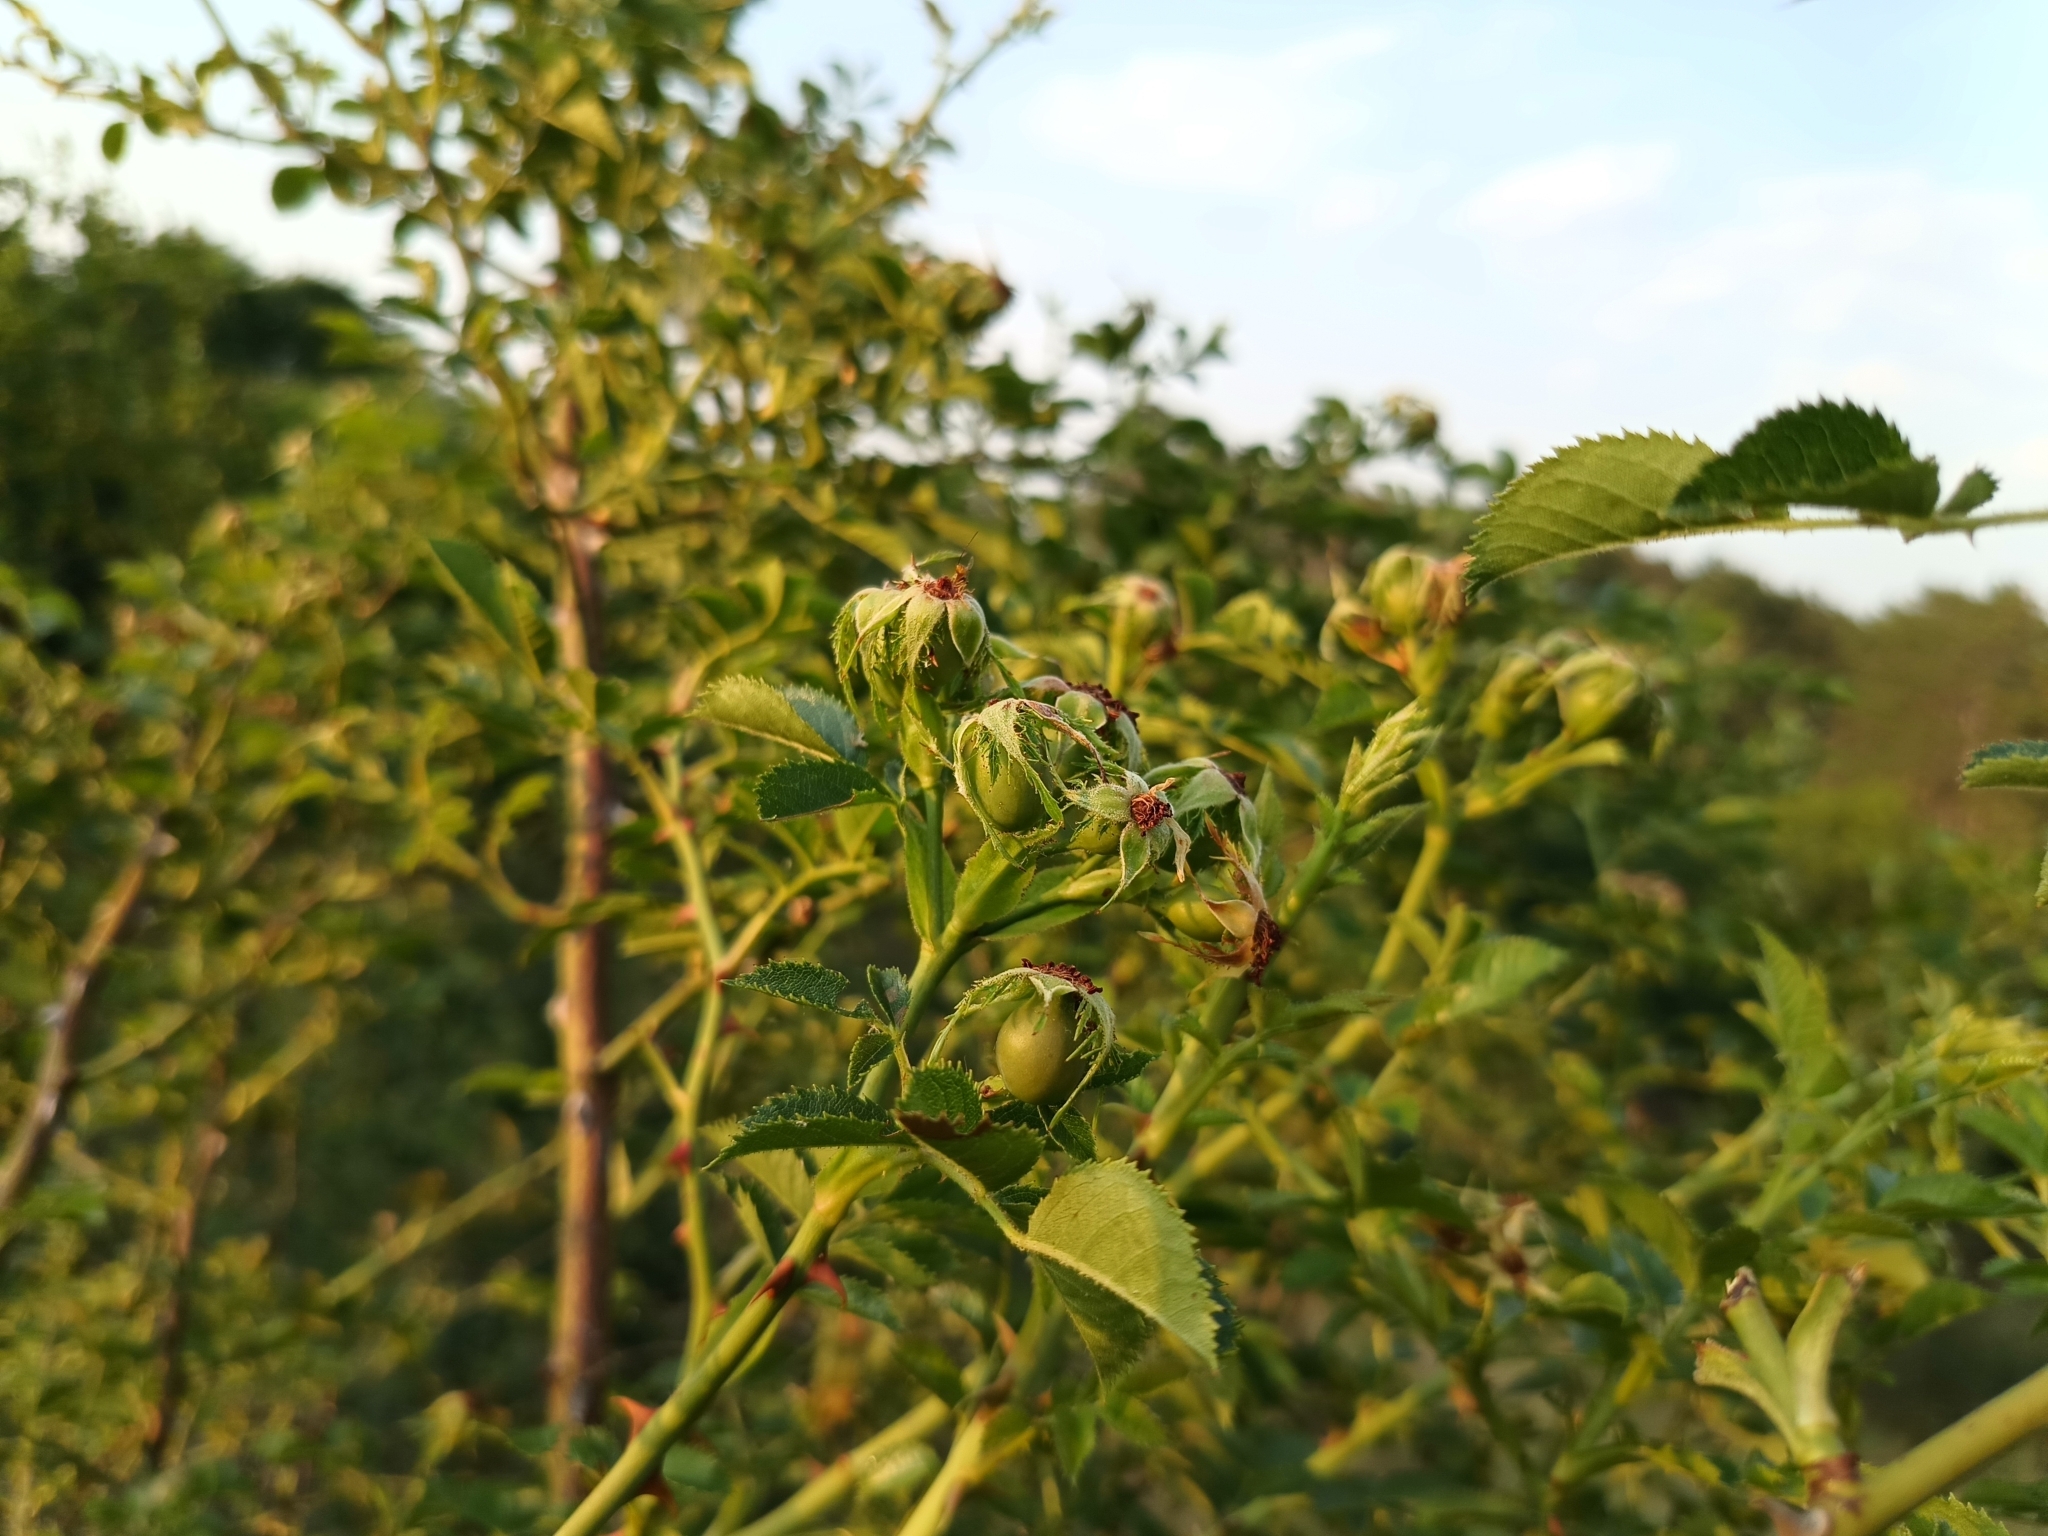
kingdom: Plantae
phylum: Tracheophyta
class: Magnoliopsida
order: Rosales
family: Rosaceae
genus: Rosa
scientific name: Rosa agrestis
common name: Fieldbriar
